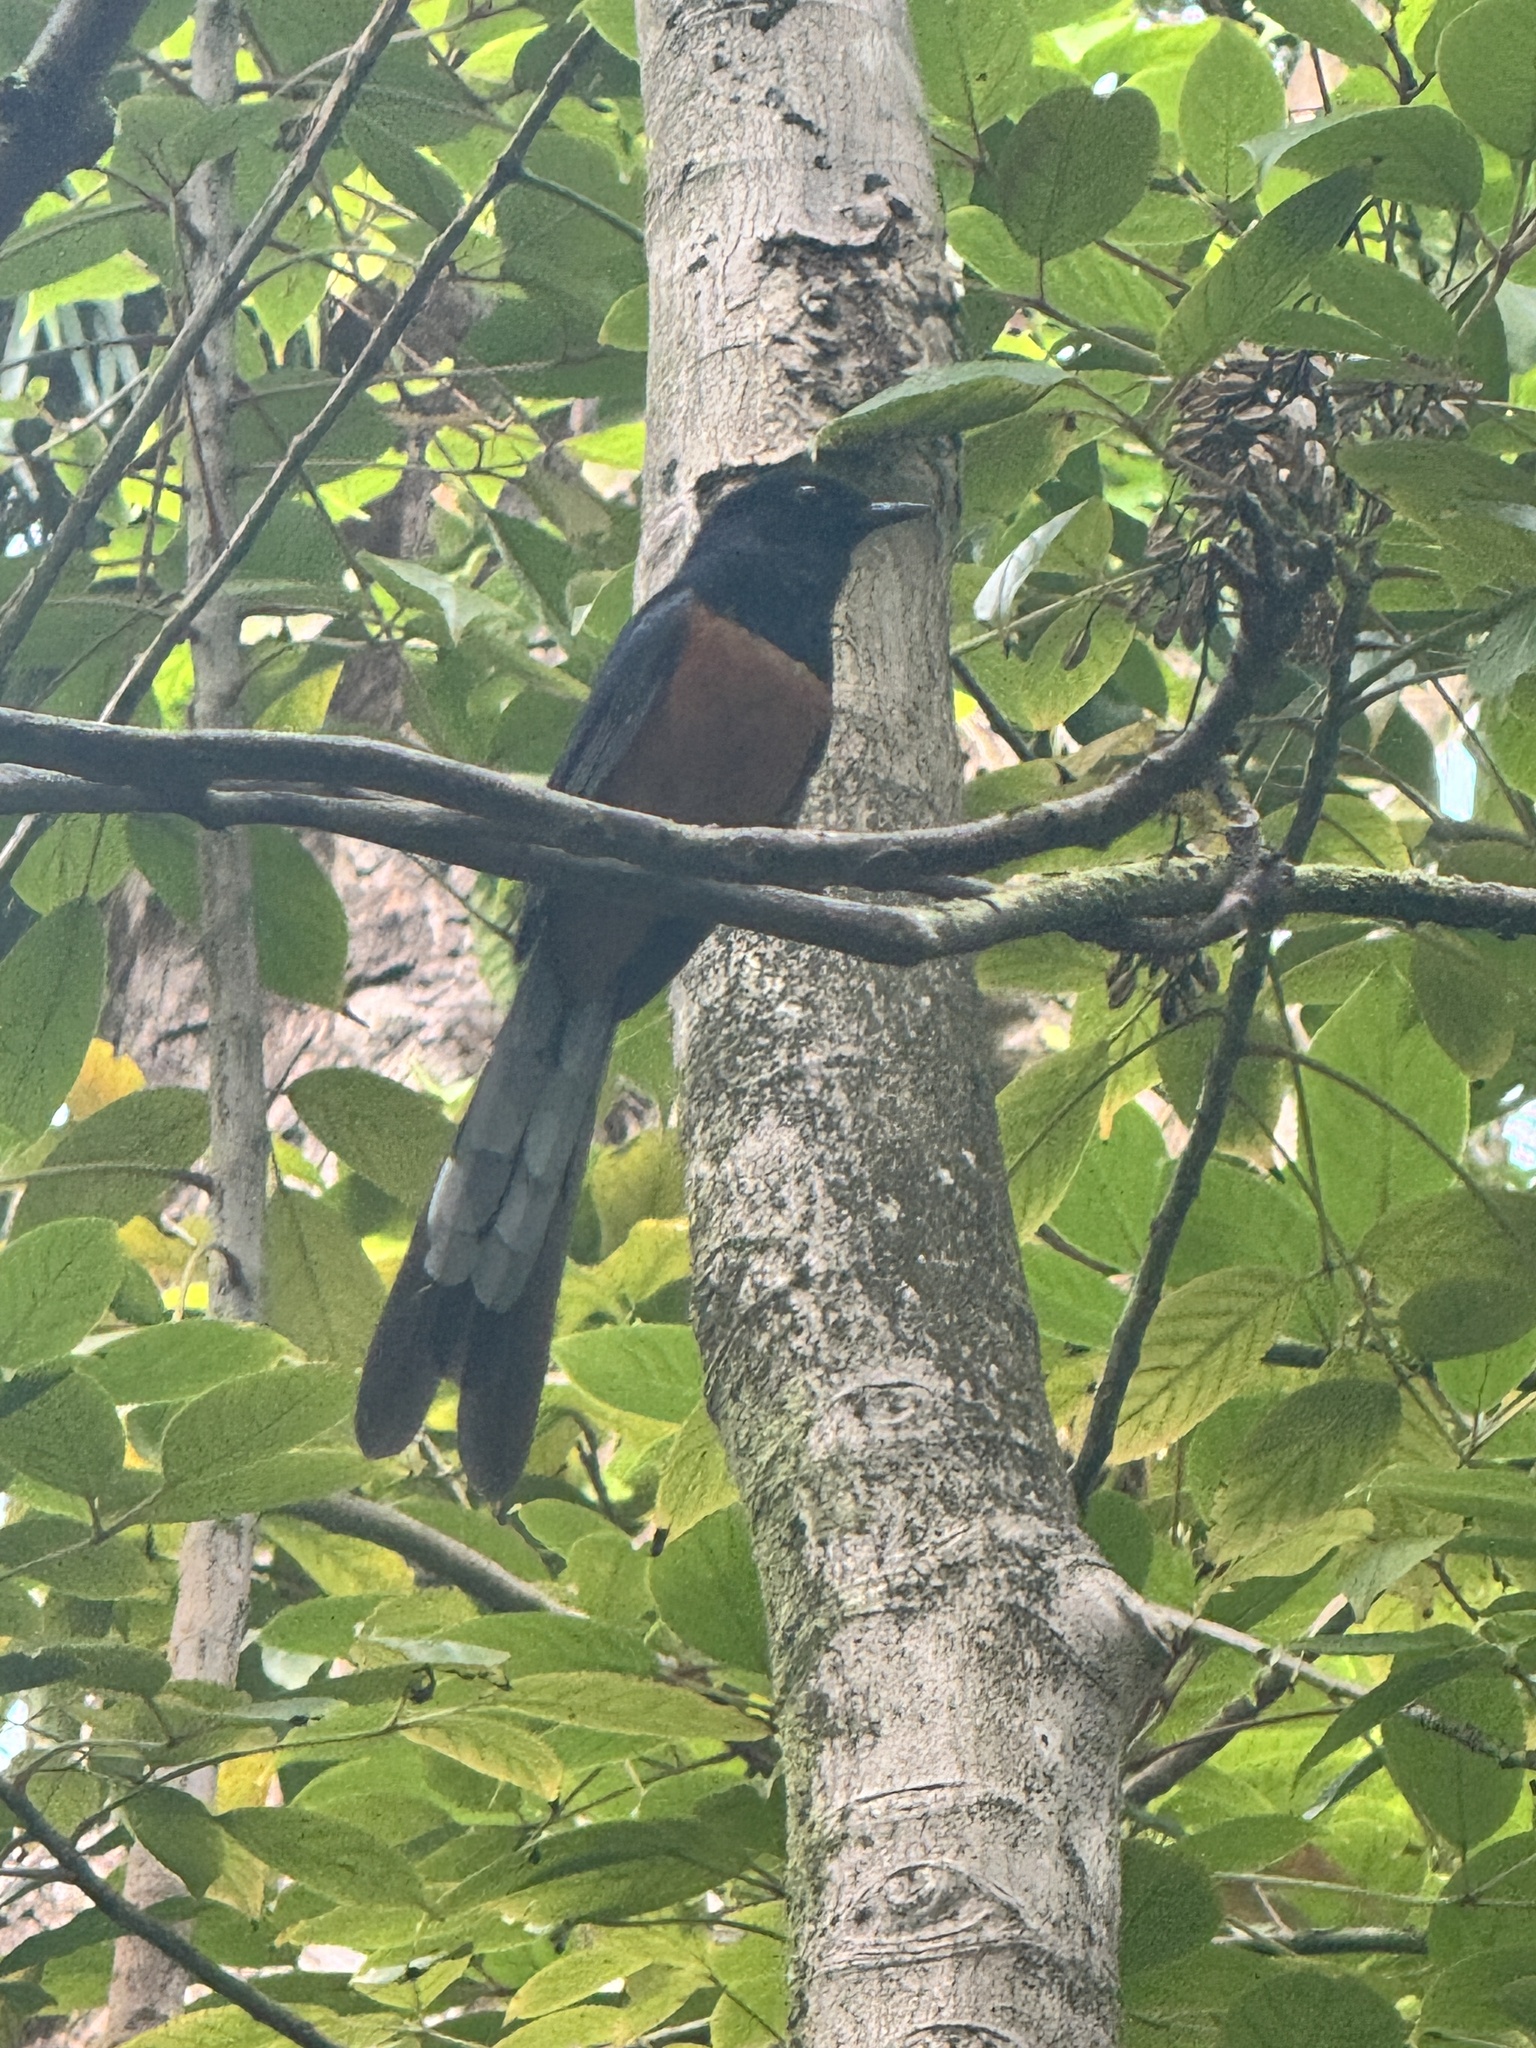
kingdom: Animalia
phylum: Chordata
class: Aves
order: Passeriformes
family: Muscicapidae
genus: Copsychus
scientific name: Copsychus malabaricus
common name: White-rumped shama
